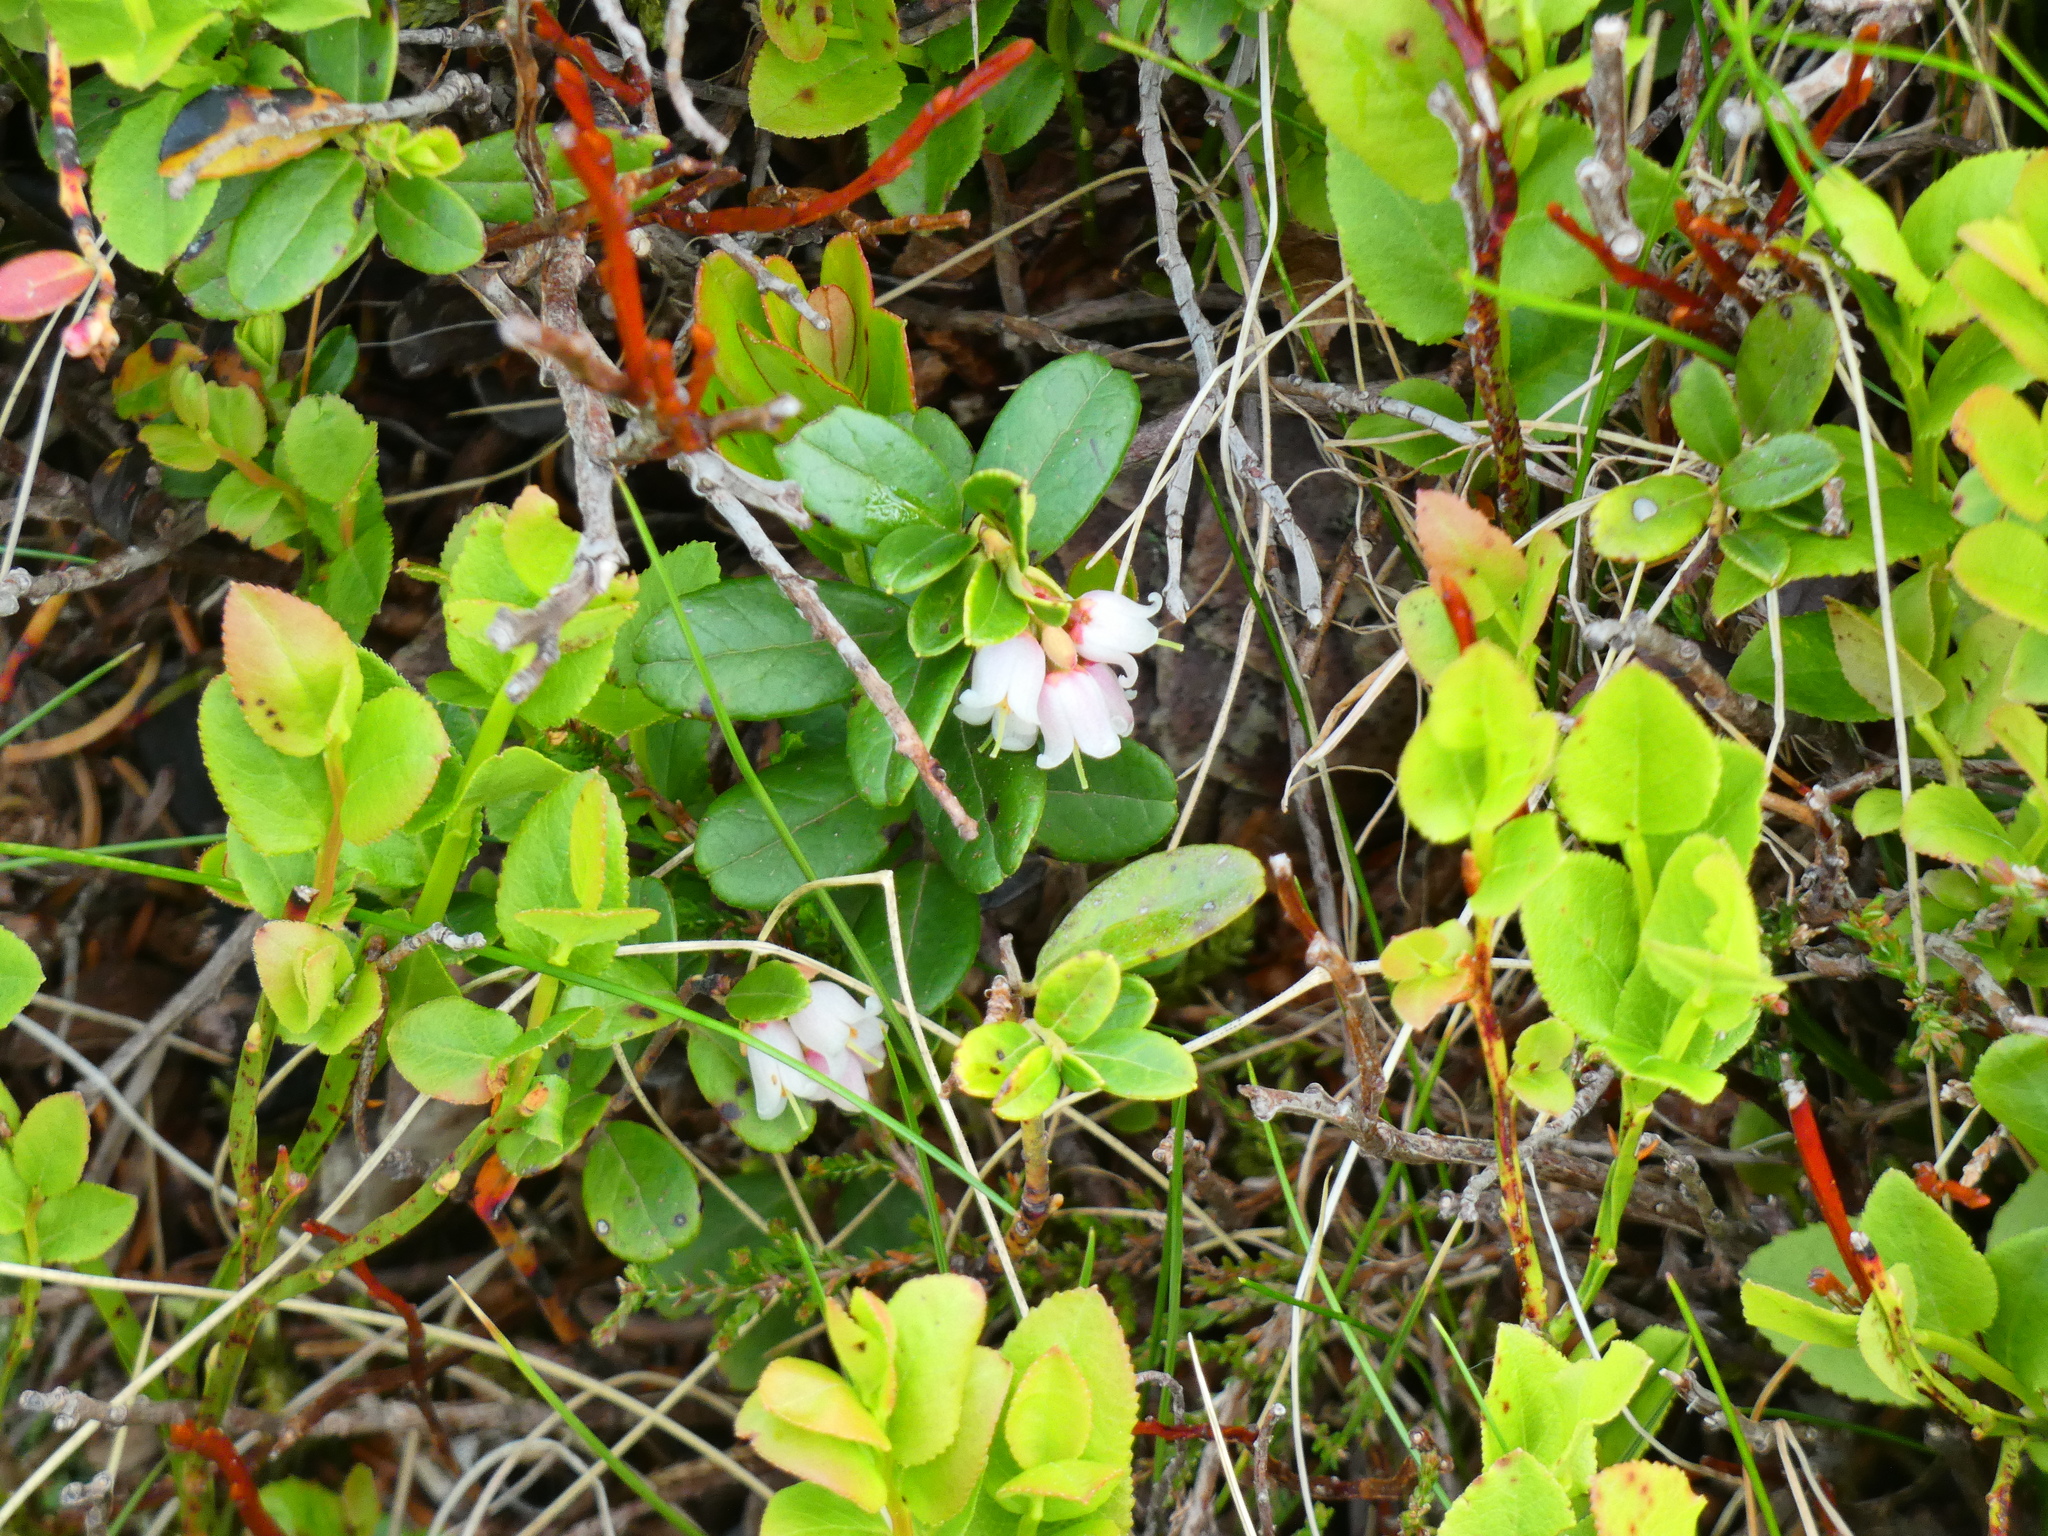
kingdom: Plantae
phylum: Tracheophyta
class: Magnoliopsida
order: Ericales
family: Ericaceae
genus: Vaccinium
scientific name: Vaccinium vitis-idaea
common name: Cowberry
